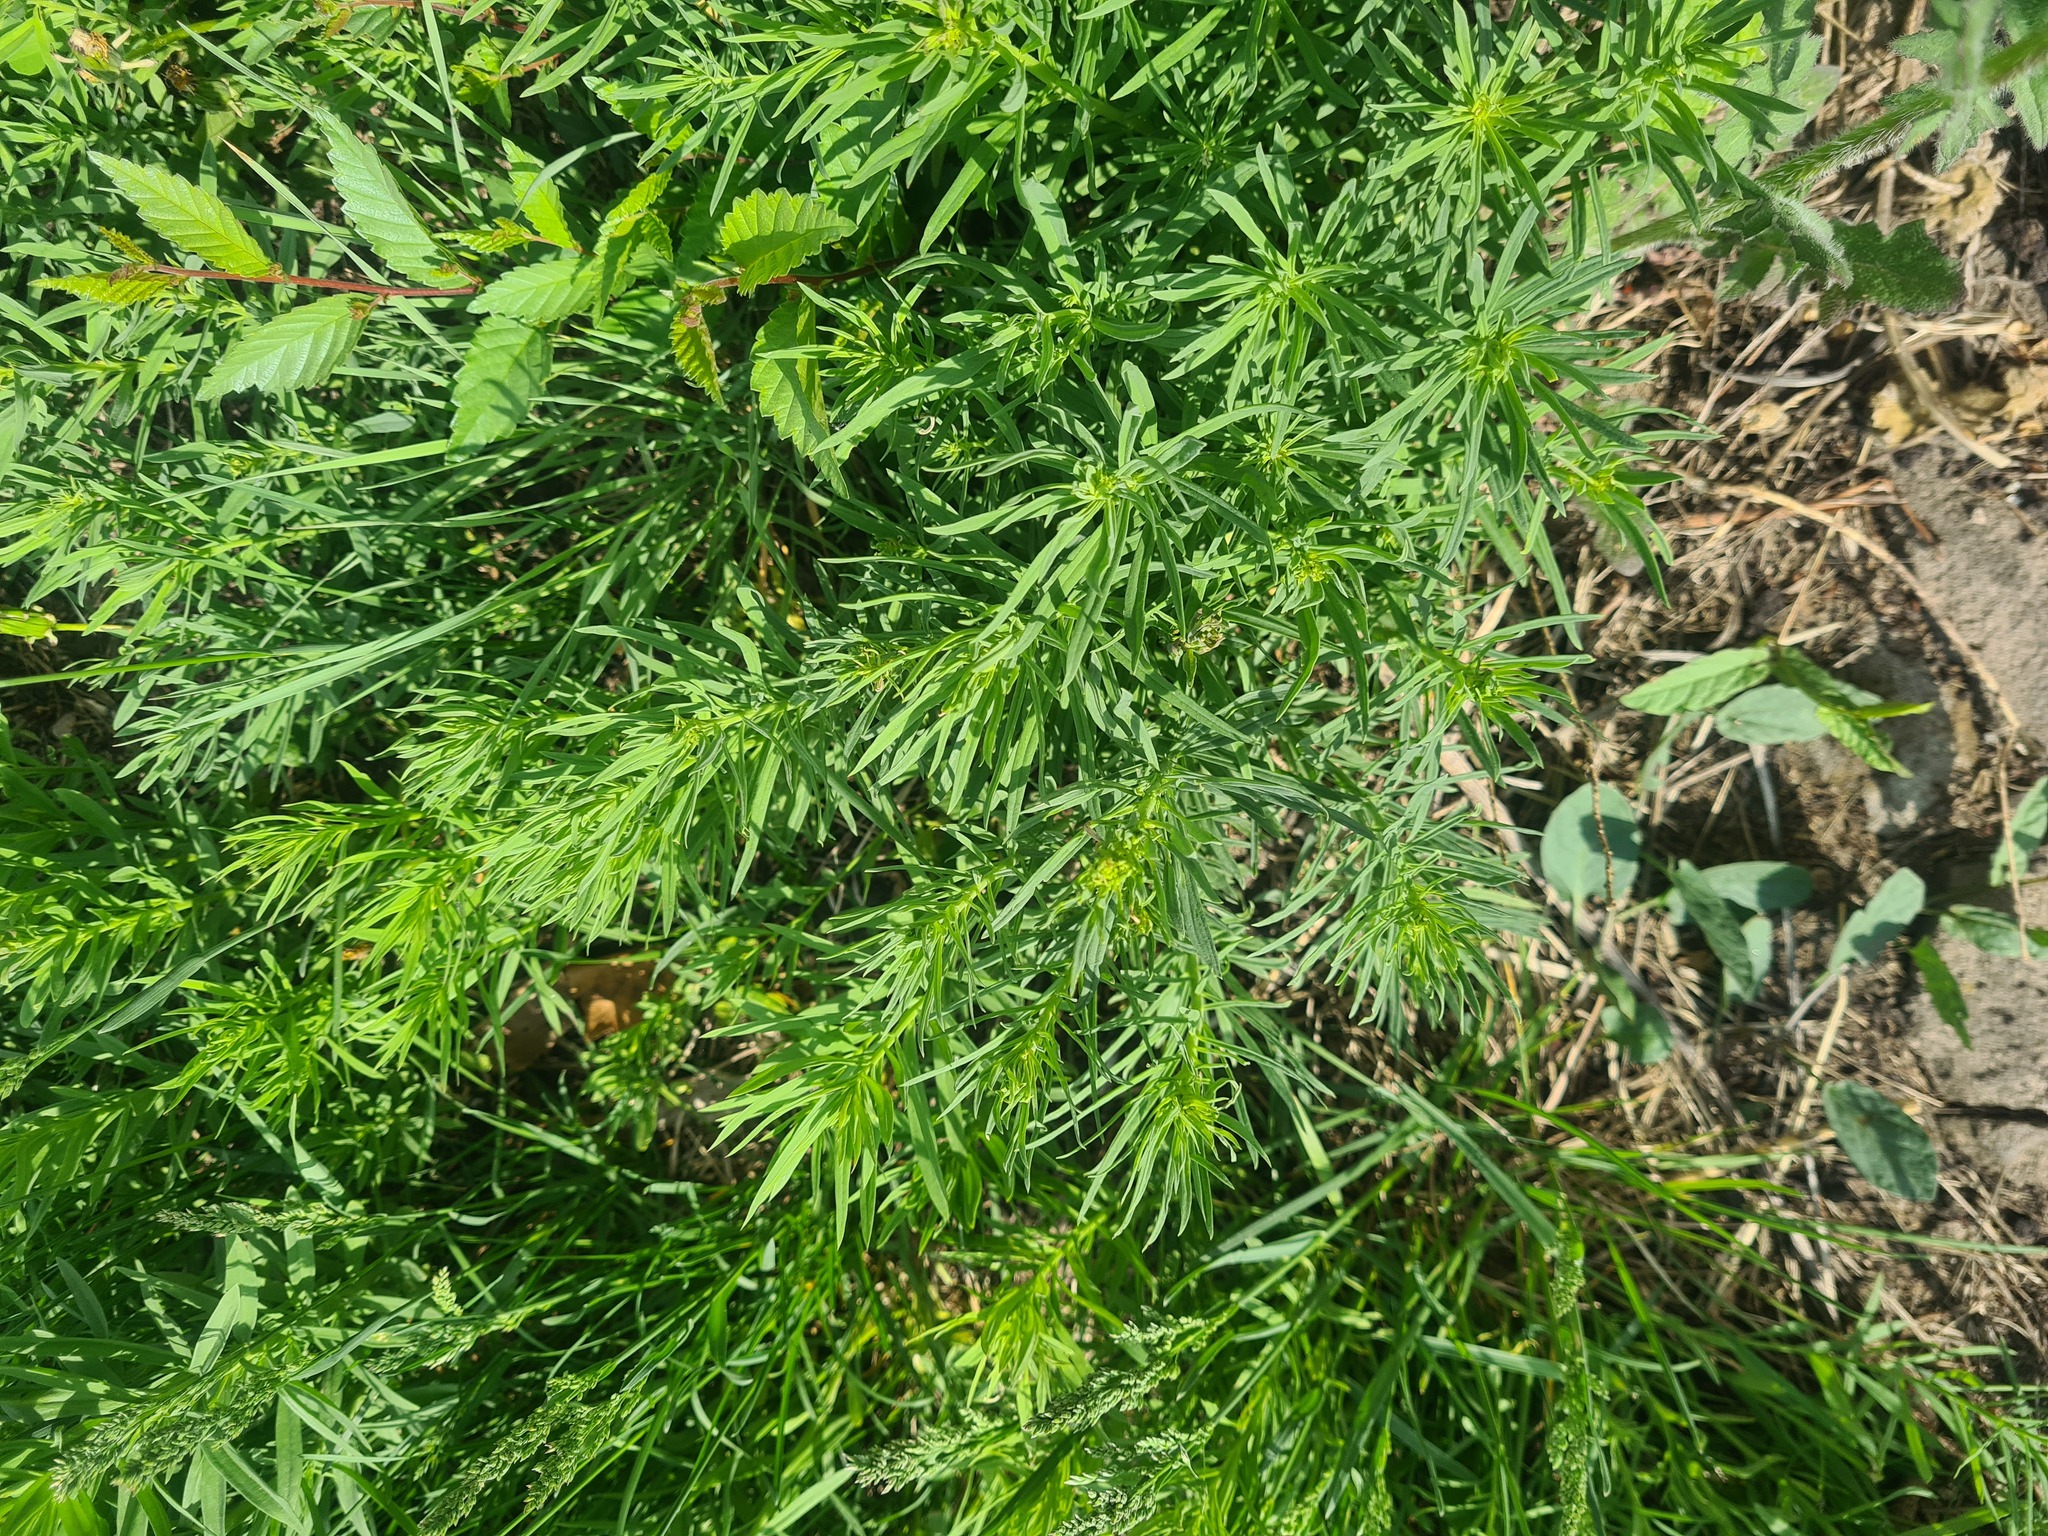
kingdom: Plantae
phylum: Tracheophyta
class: Magnoliopsida
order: Malpighiales
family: Euphorbiaceae
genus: Euphorbia
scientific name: Euphorbia virgata
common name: Leafy spurge
